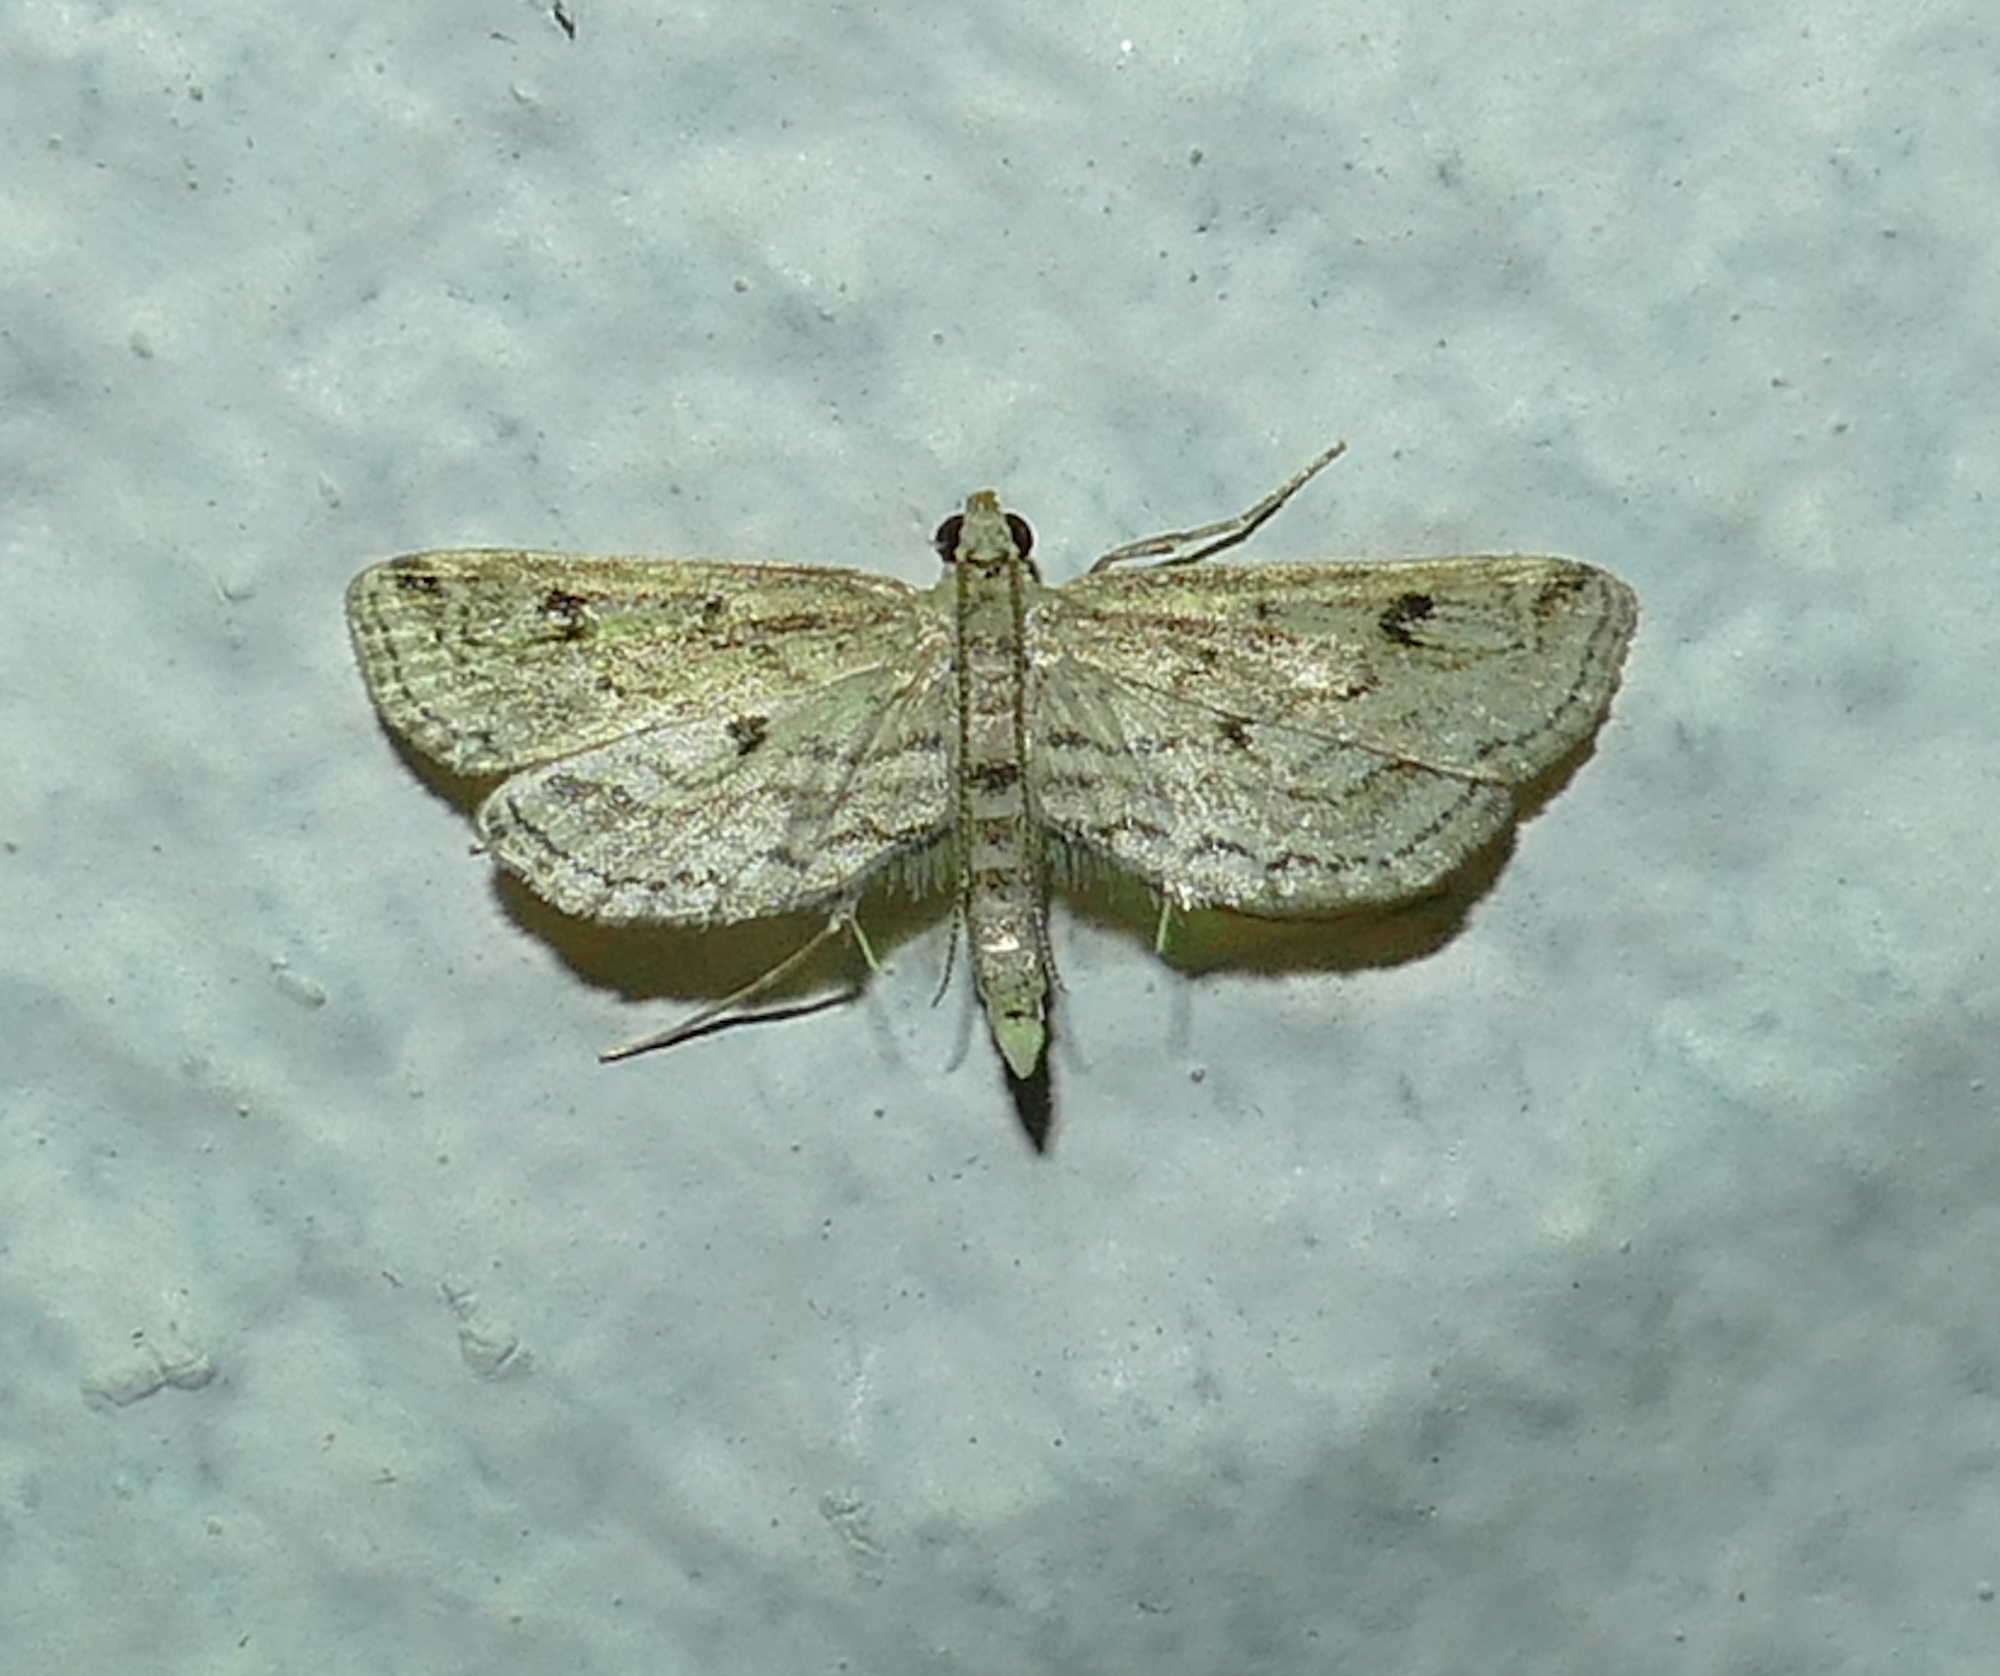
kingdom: Animalia
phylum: Arthropoda
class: Insecta
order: Lepidoptera
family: Crambidae
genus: Parapoynx
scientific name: Parapoynx allionealis
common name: Bladderwort casemaker
